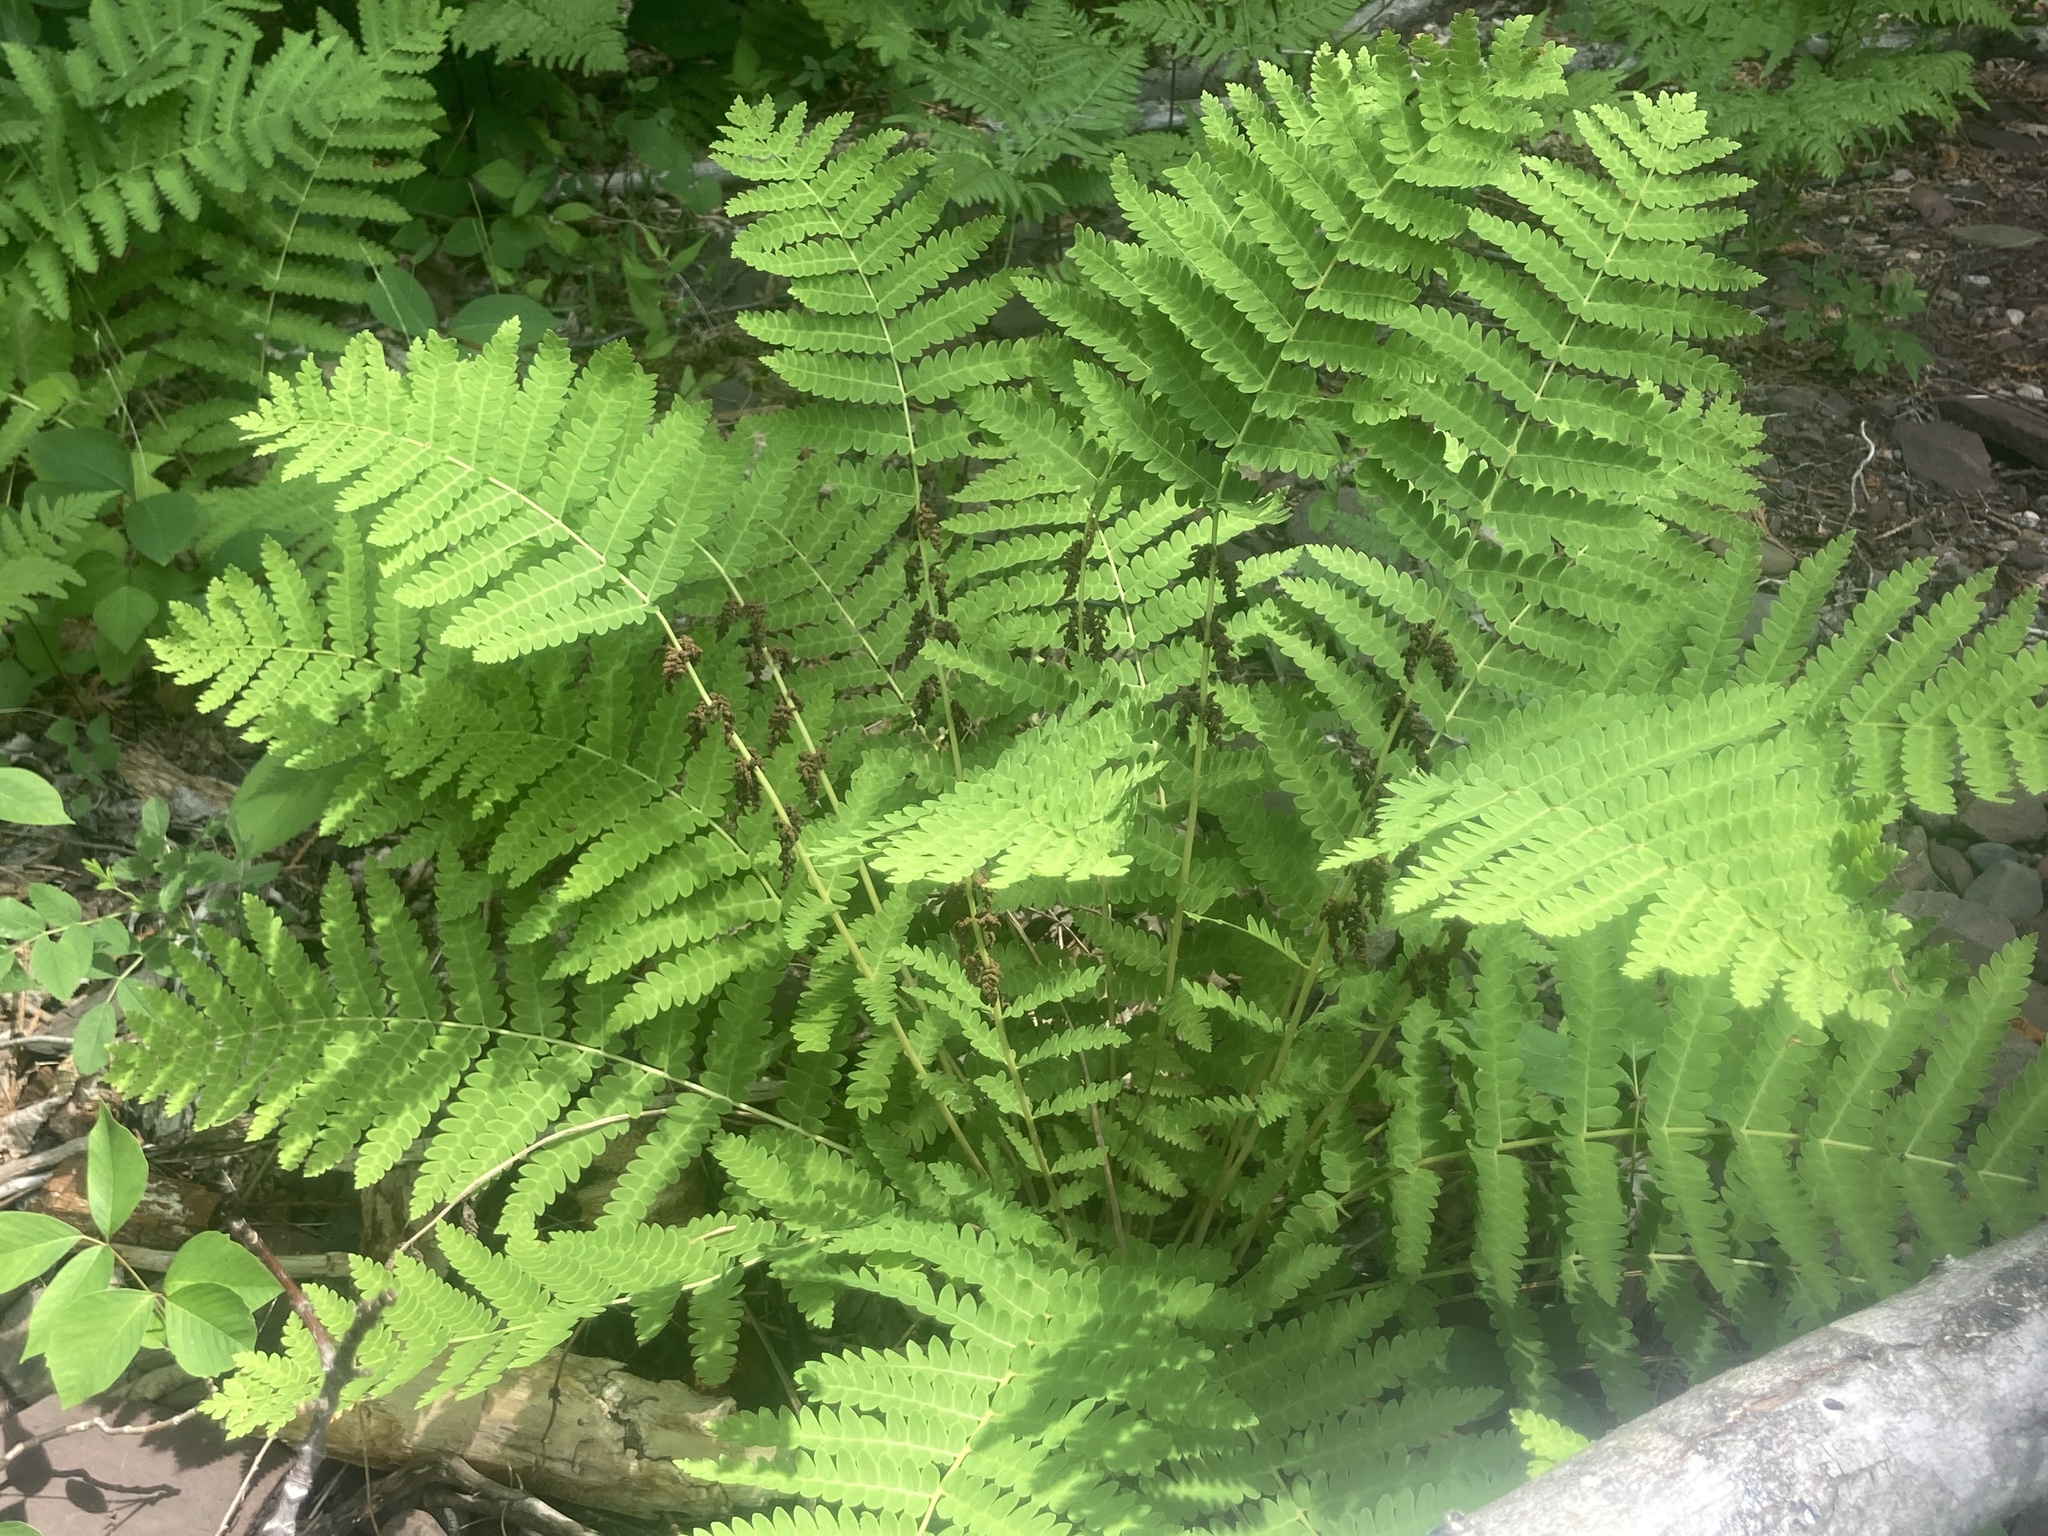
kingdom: Plantae
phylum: Tracheophyta
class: Polypodiopsida
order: Osmundales
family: Osmundaceae
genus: Claytosmunda
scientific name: Claytosmunda claytoniana
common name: Clayton's fern
